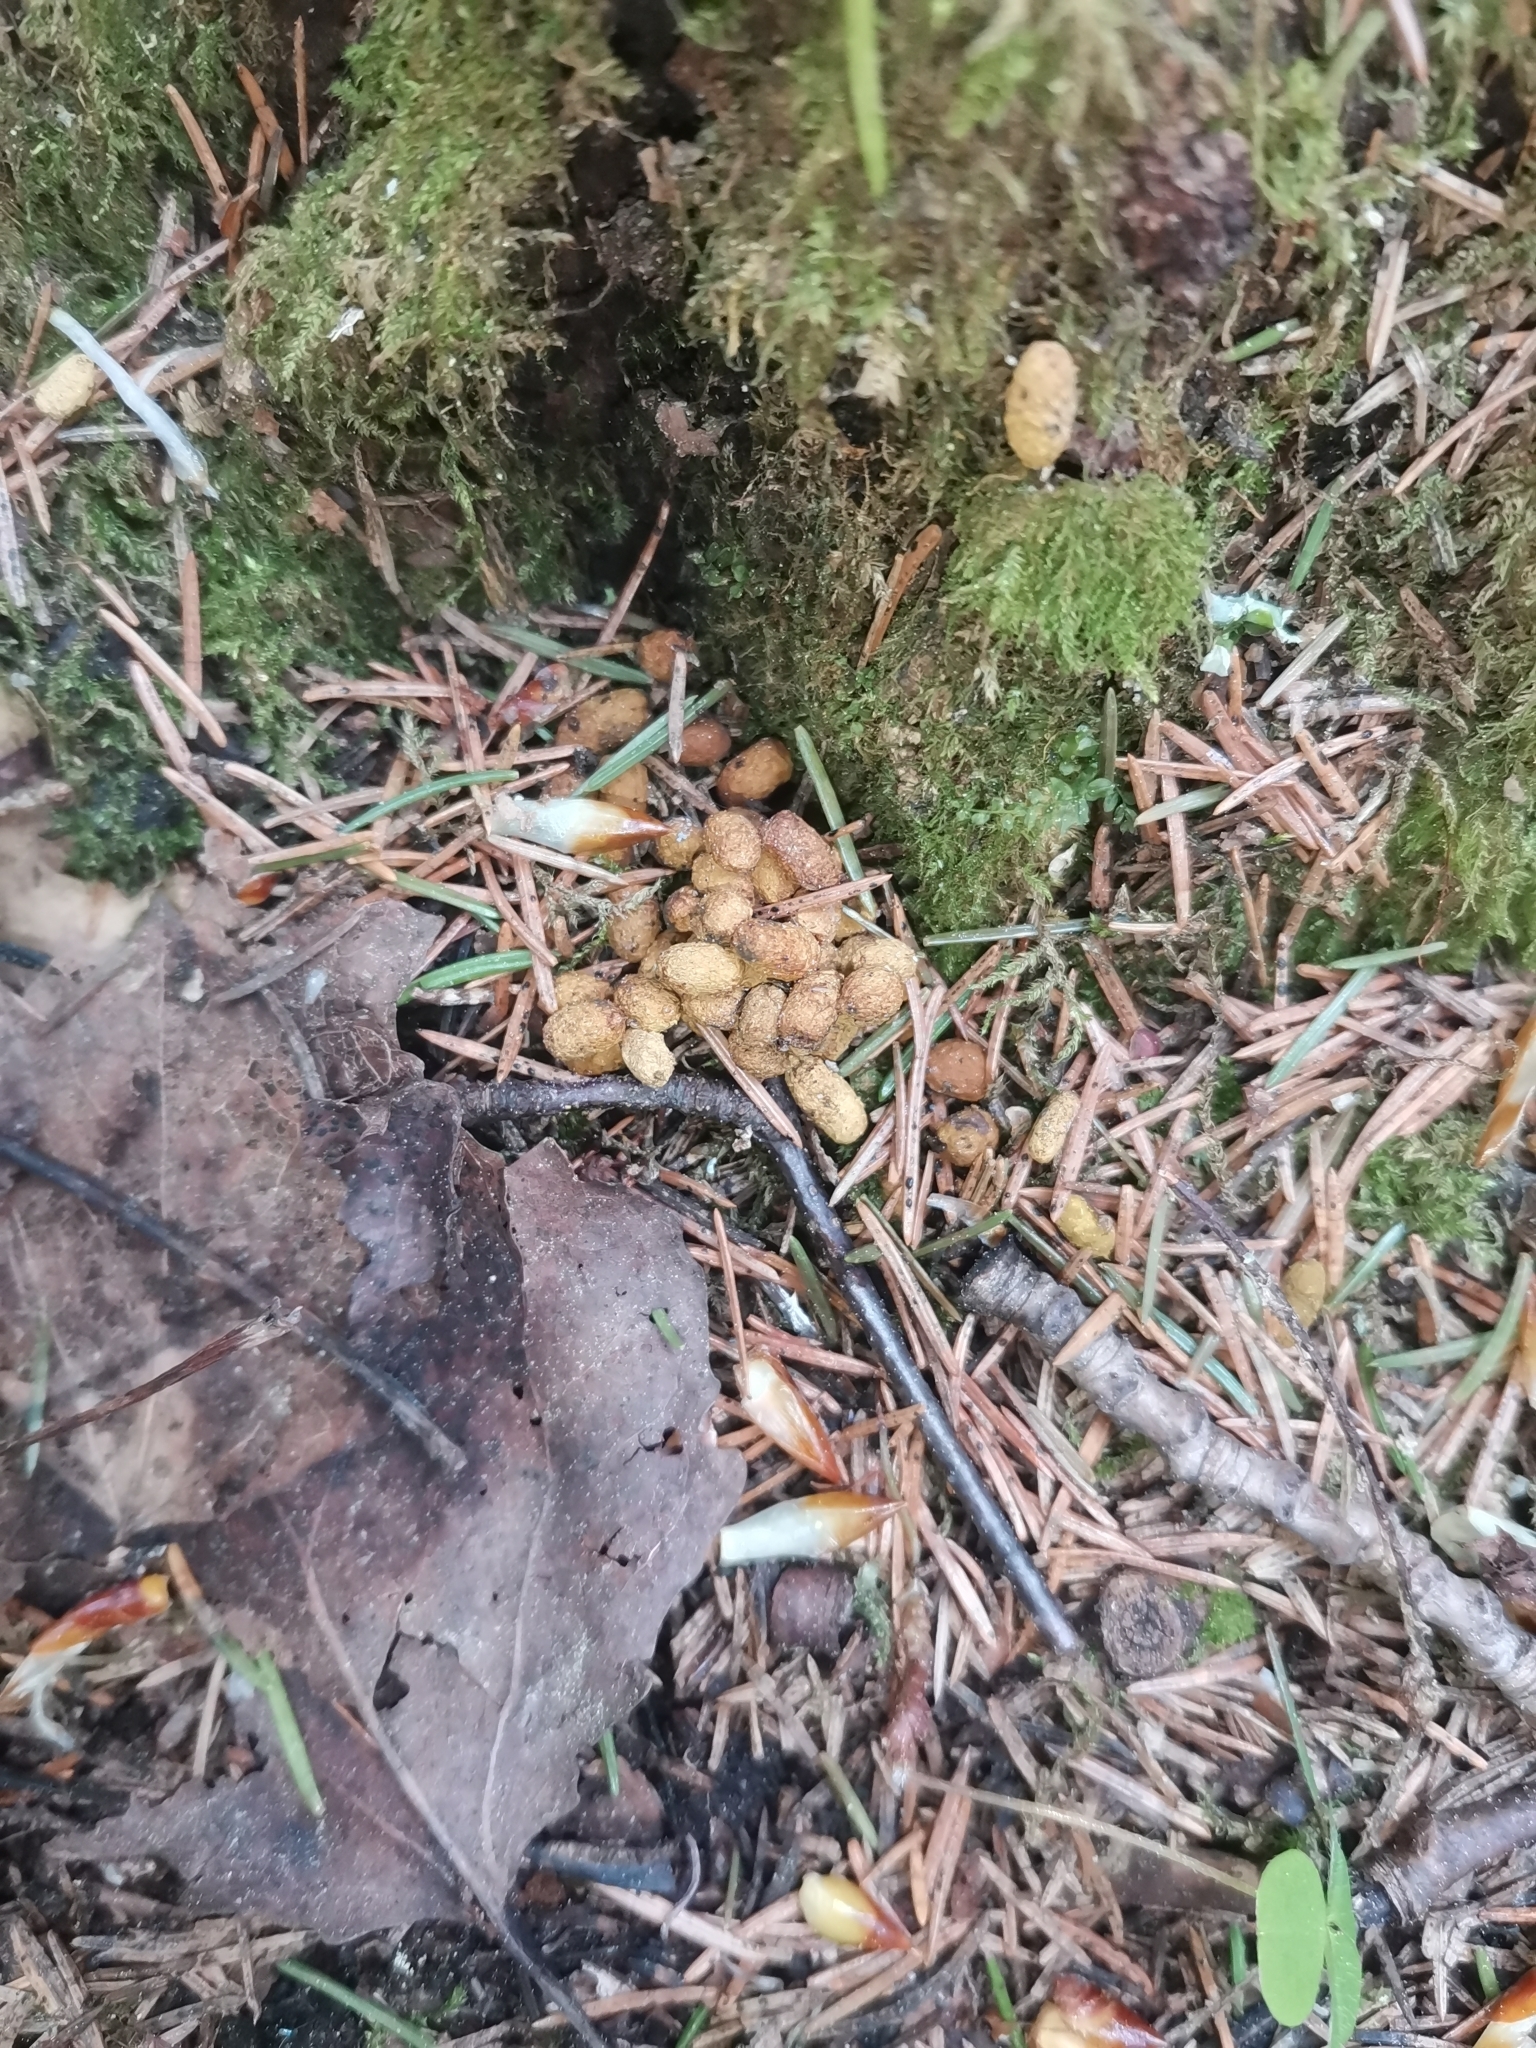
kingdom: Animalia
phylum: Chordata
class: Mammalia
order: Rodentia
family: Sciuridae
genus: Pteromys
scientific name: Pteromys volans
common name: Siberian flying squirrel
